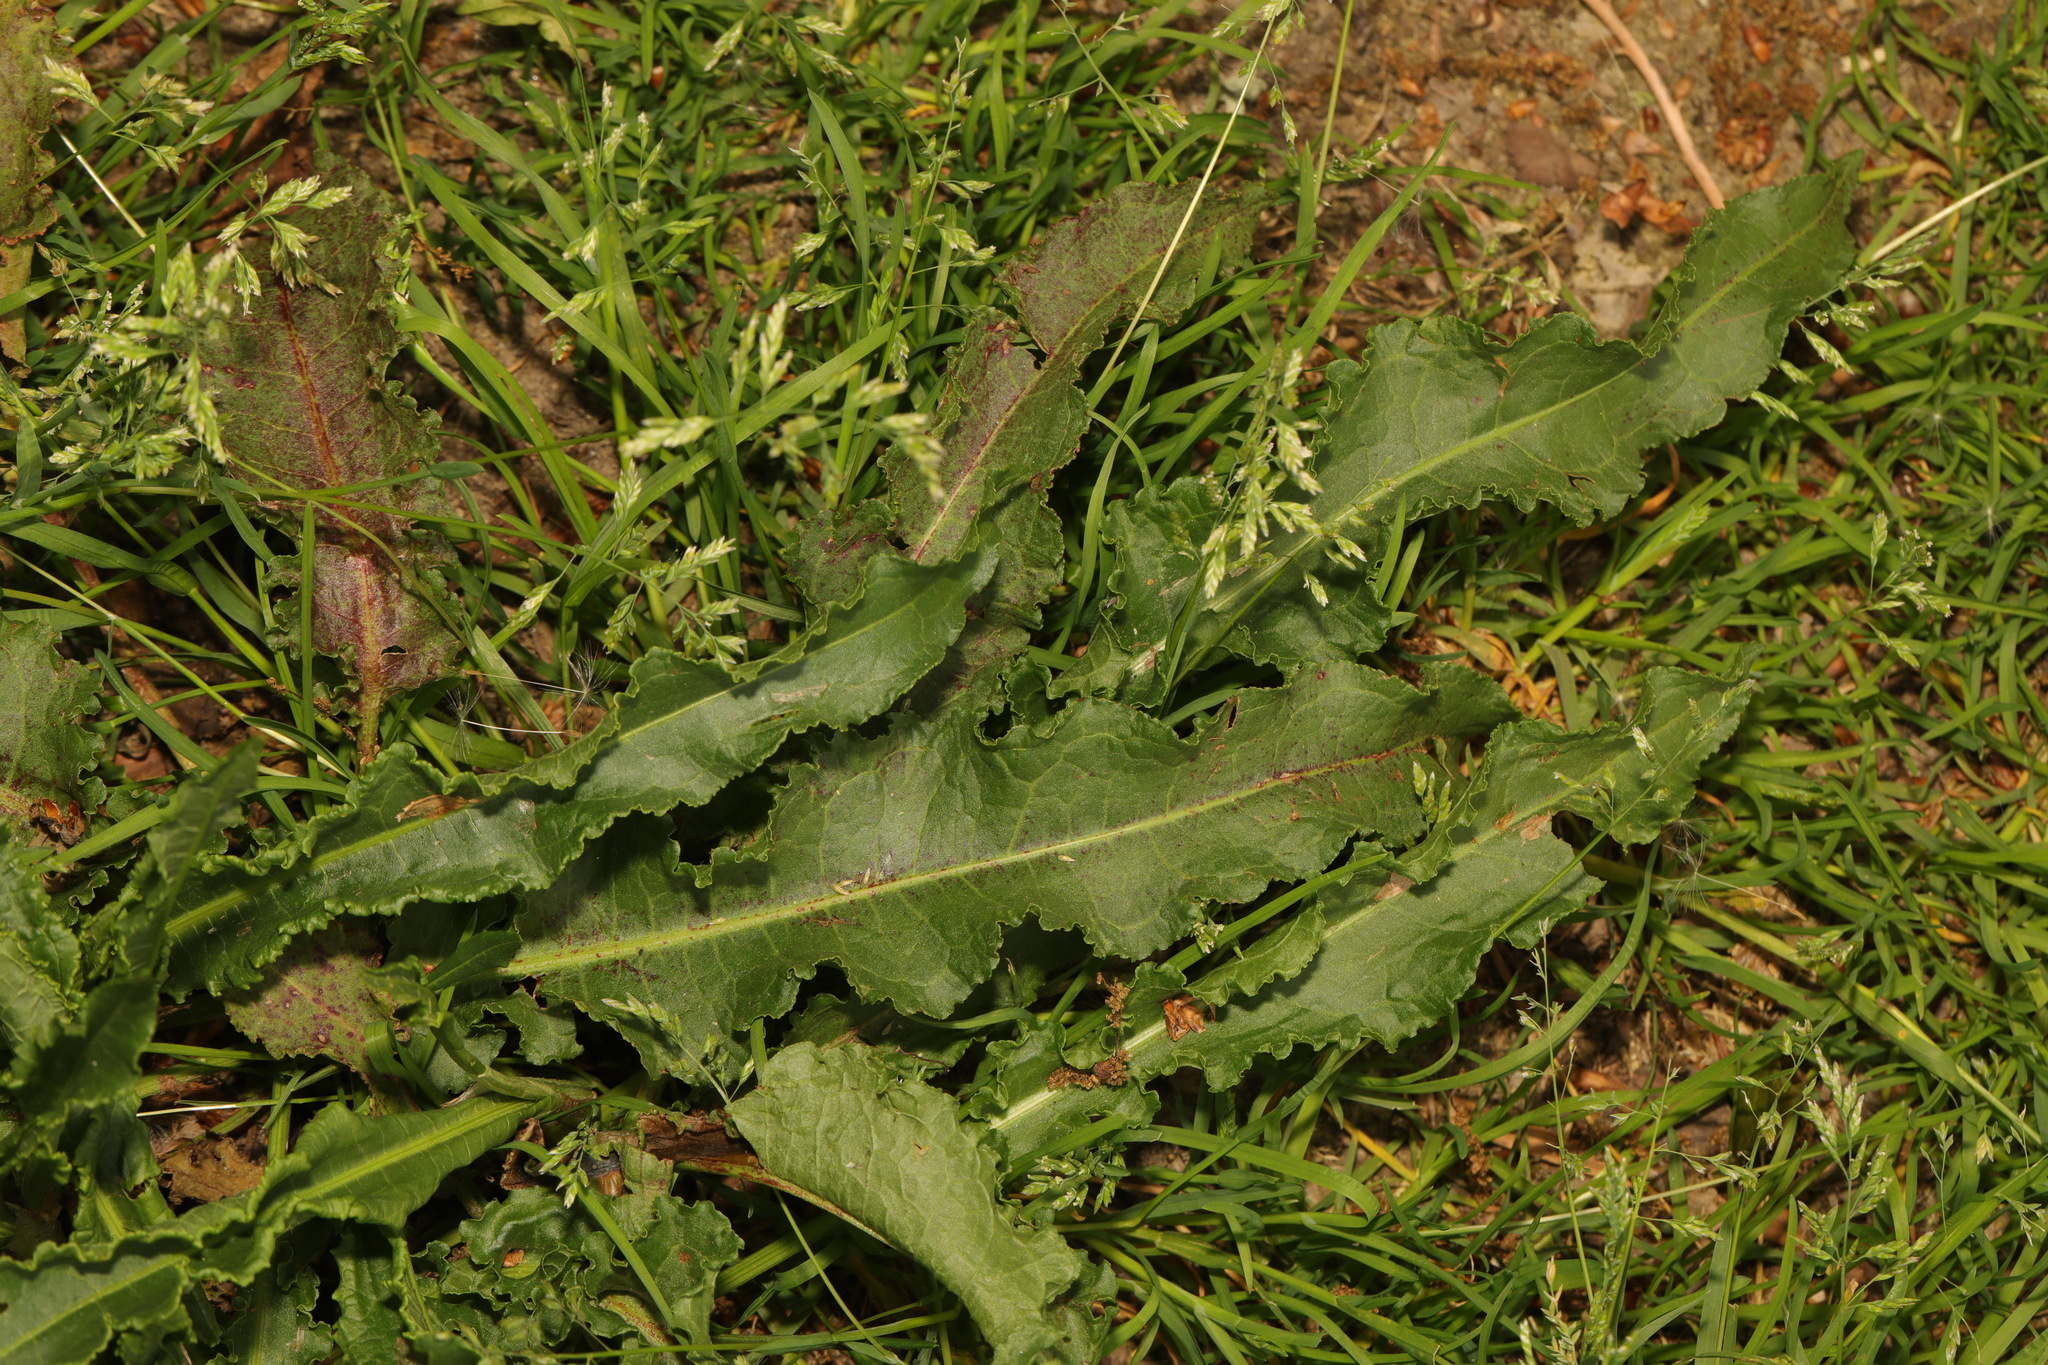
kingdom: Plantae
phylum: Tracheophyta
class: Magnoliopsida
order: Caryophyllales
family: Polygonaceae
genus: Rumex
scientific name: Rumex crispus
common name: Curled dock
